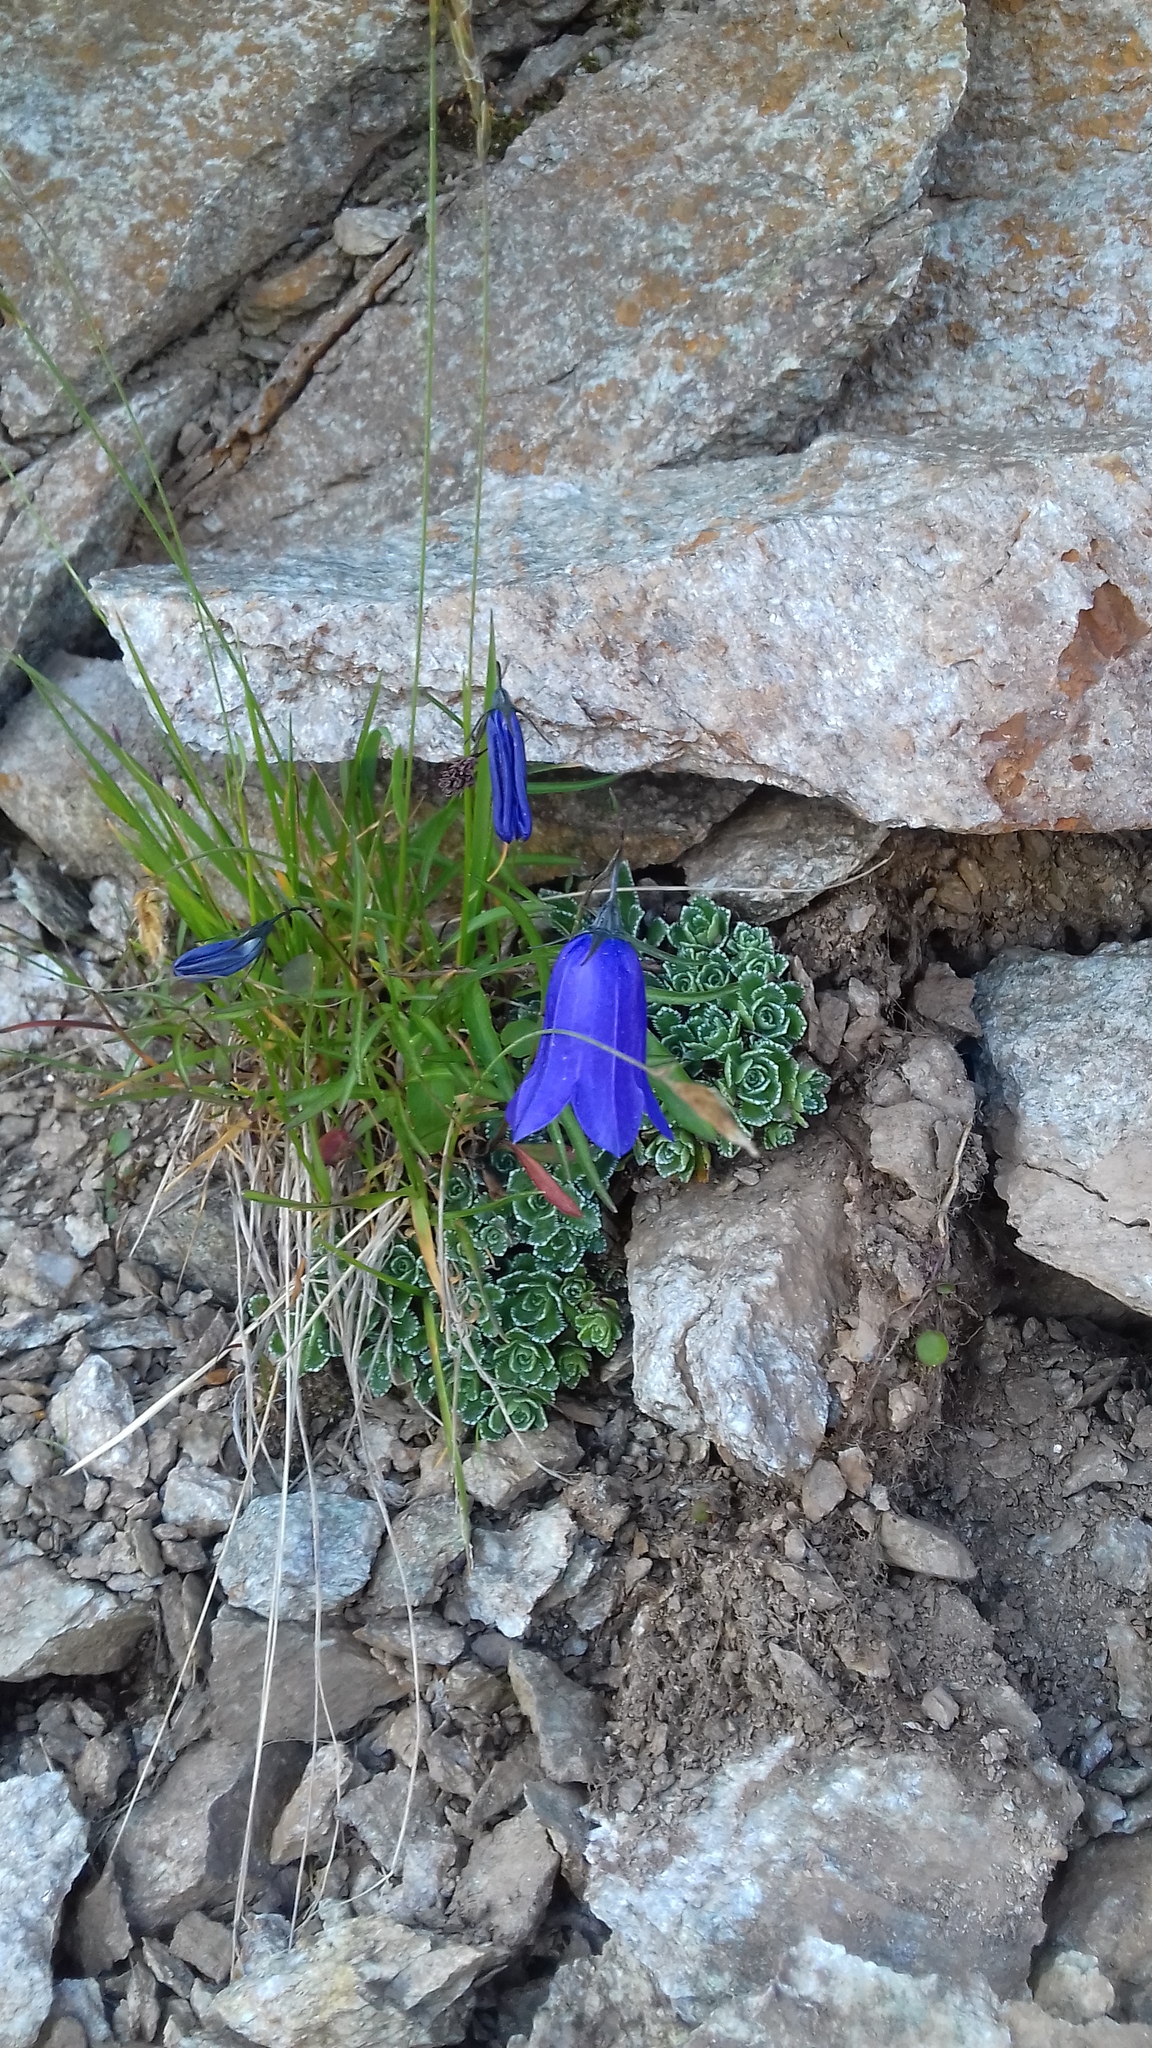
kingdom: Plantae
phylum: Tracheophyta
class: Magnoliopsida
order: Asterales
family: Campanulaceae
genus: Campanula
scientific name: Campanula cochleariifolia
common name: Fairies'-thimbles
